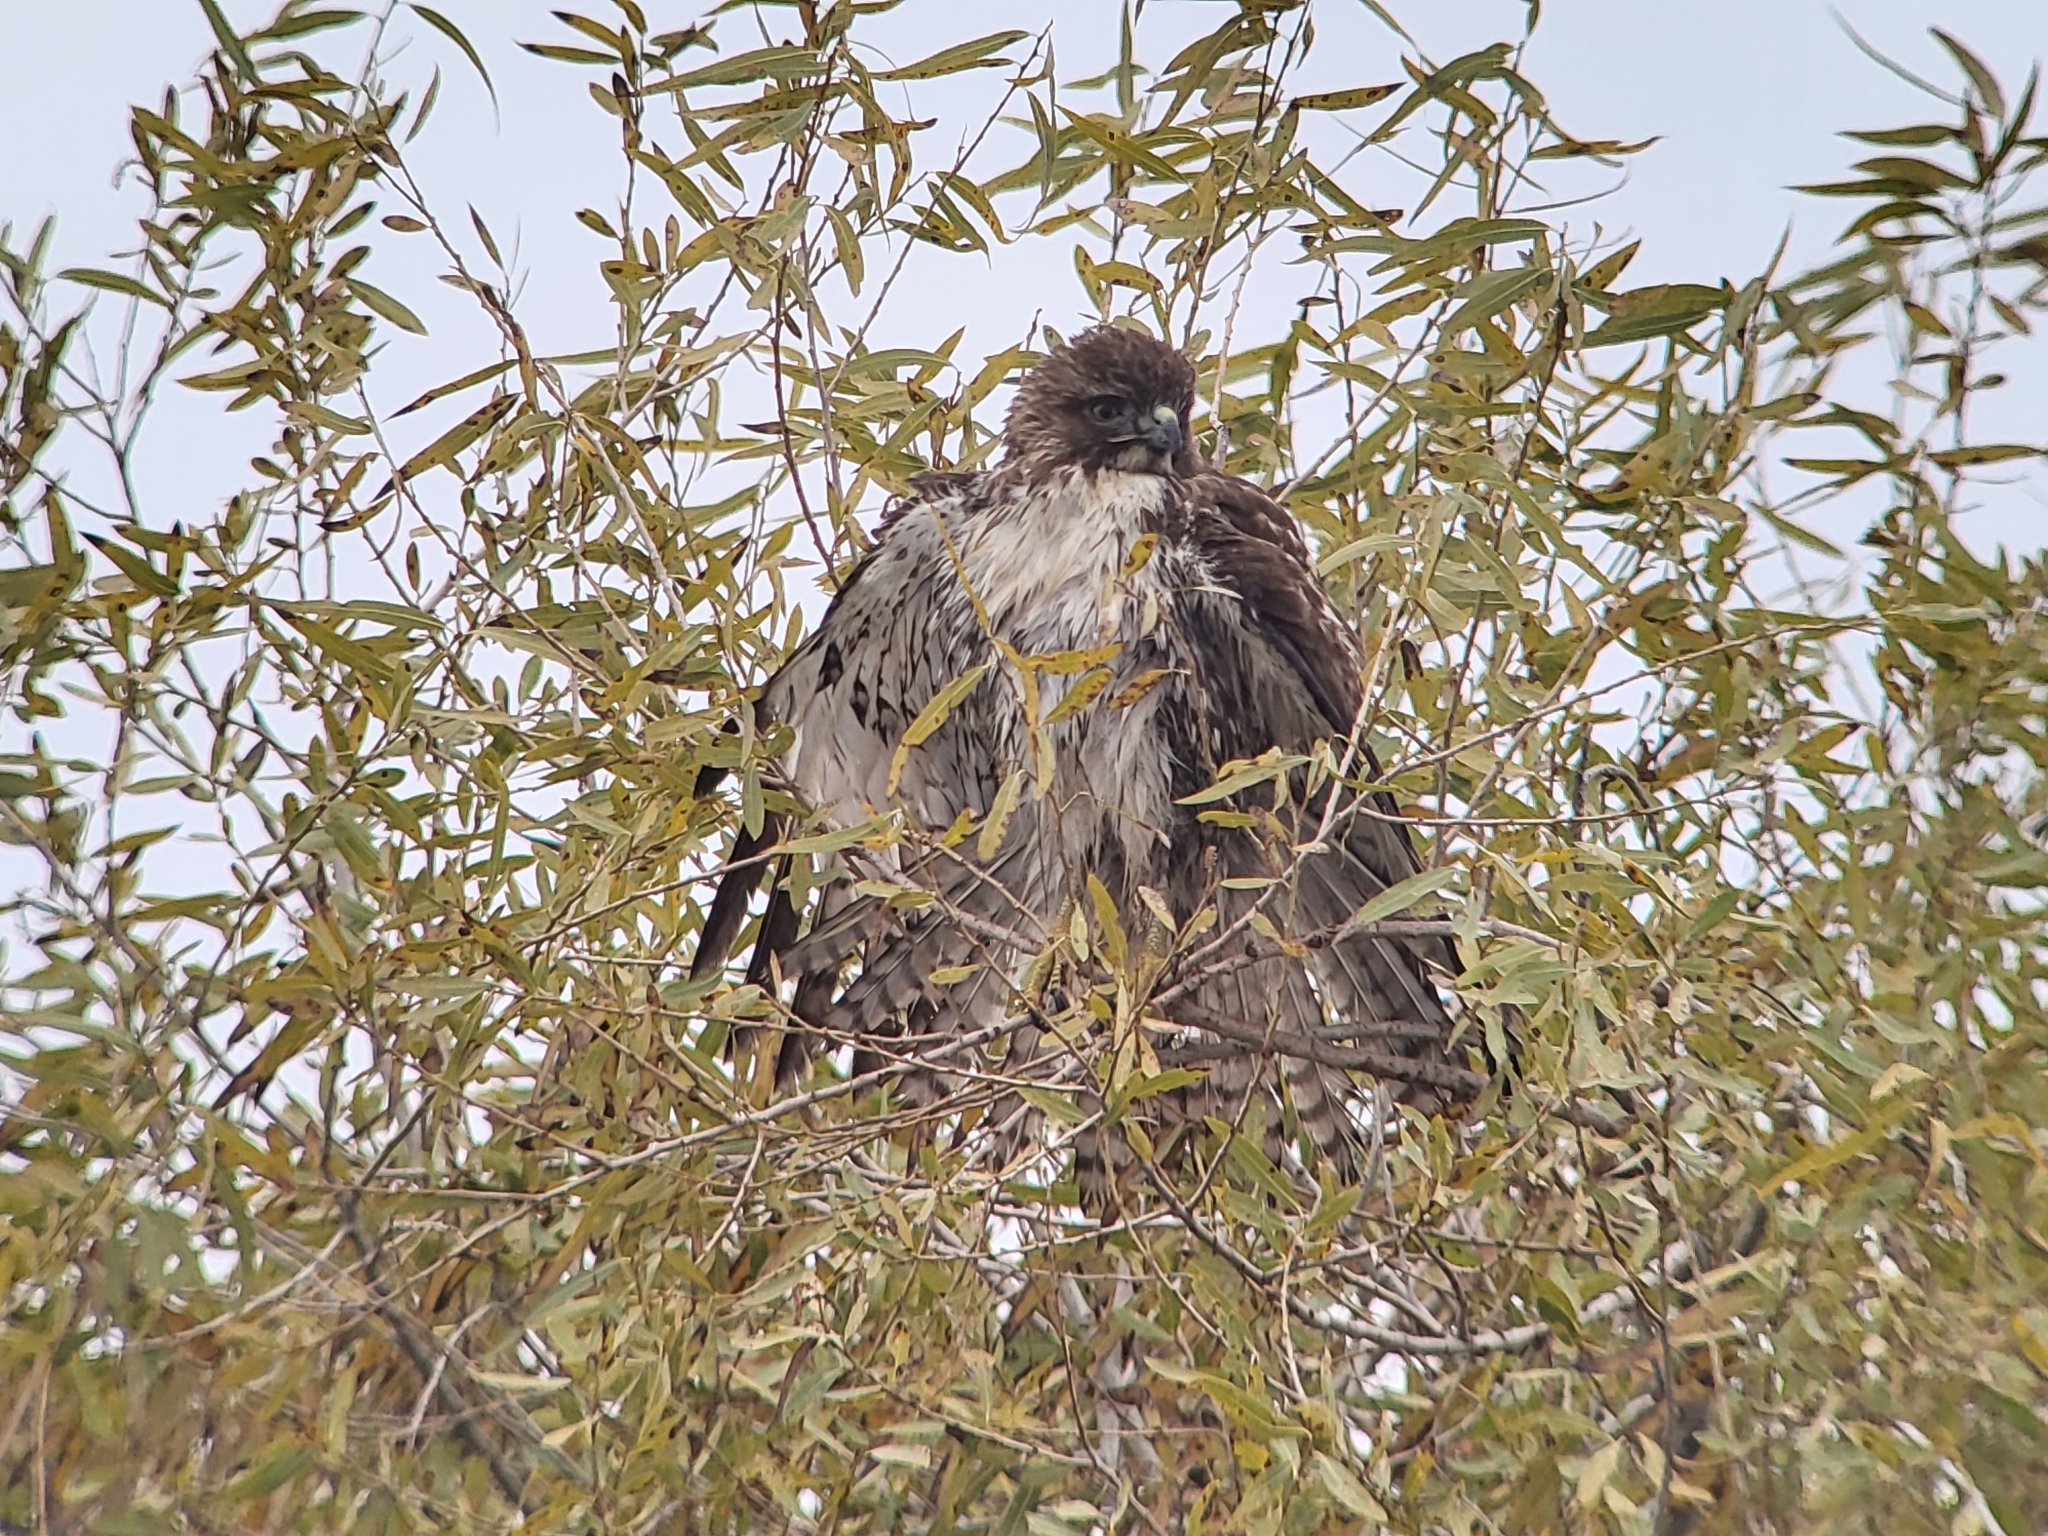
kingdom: Animalia
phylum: Chordata
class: Aves
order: Accipitriformes
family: Accipitridae
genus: Buteo
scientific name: Buteo jamaicensis
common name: Red-tailed hawk
